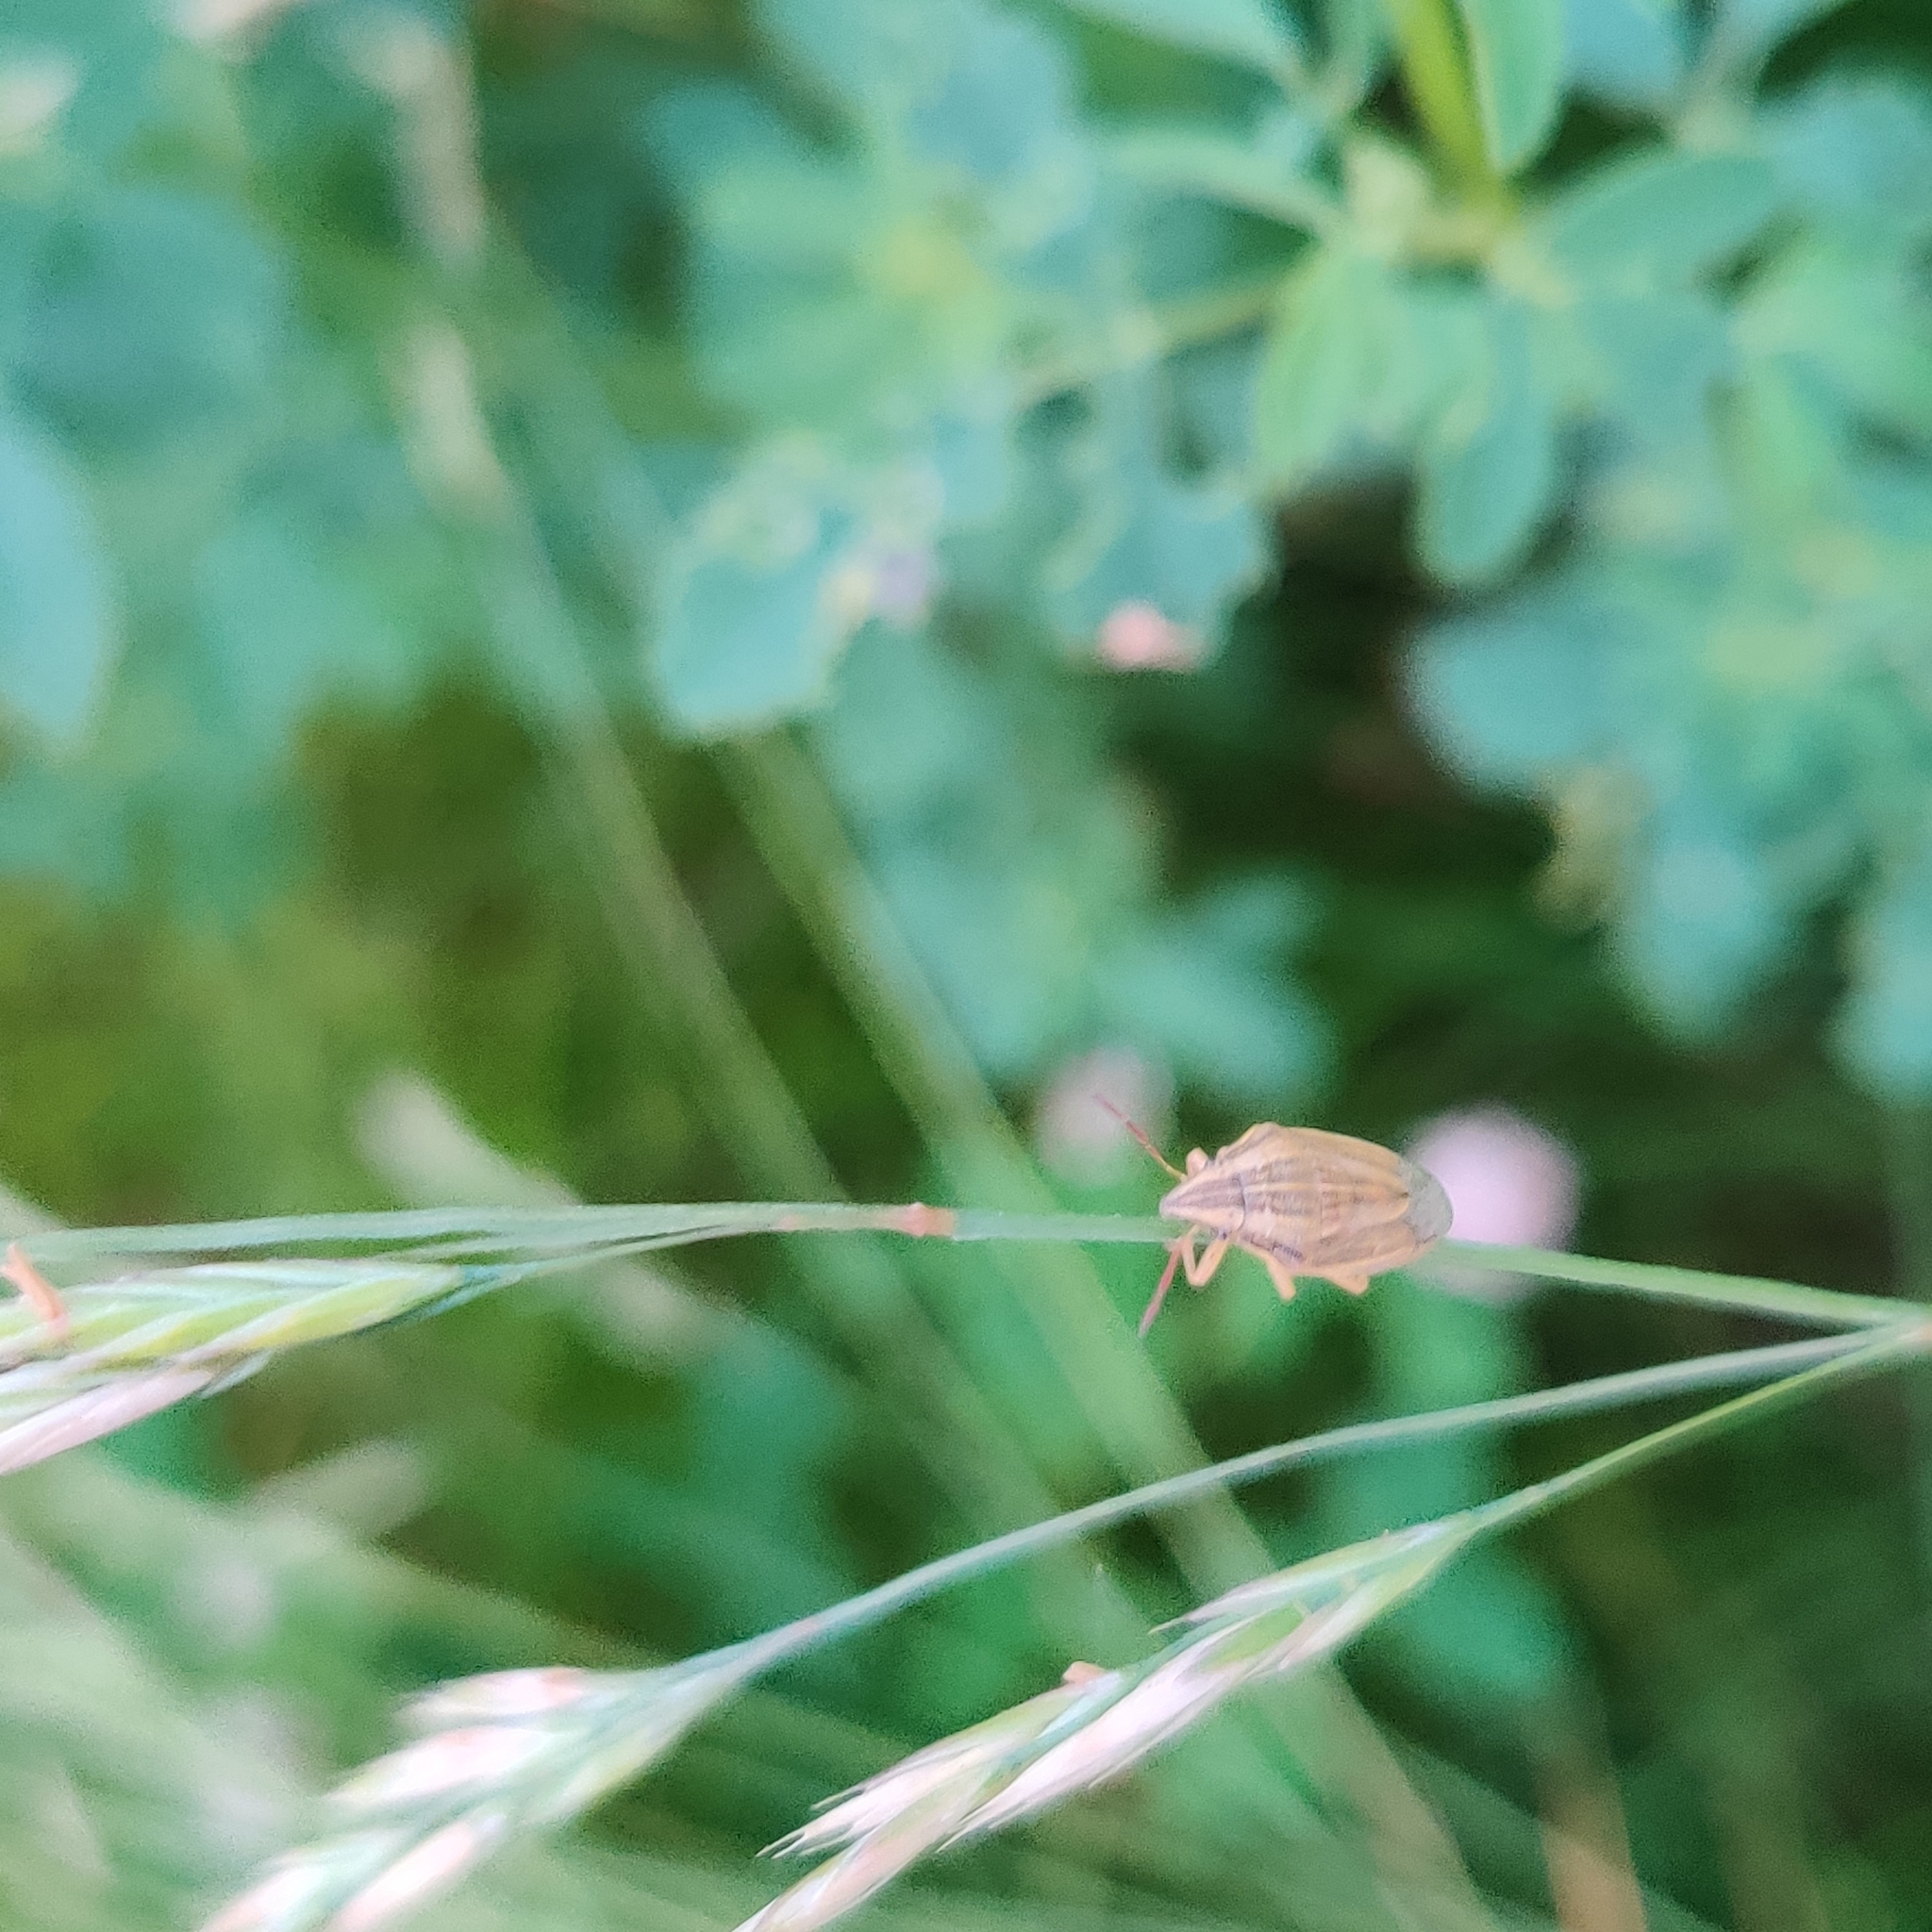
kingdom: Animalia
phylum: Arthropoda
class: Insecta
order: Hemiptera
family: Pentatomidae
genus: Aelia
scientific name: Aelia acuminata
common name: Bishop's mitre
